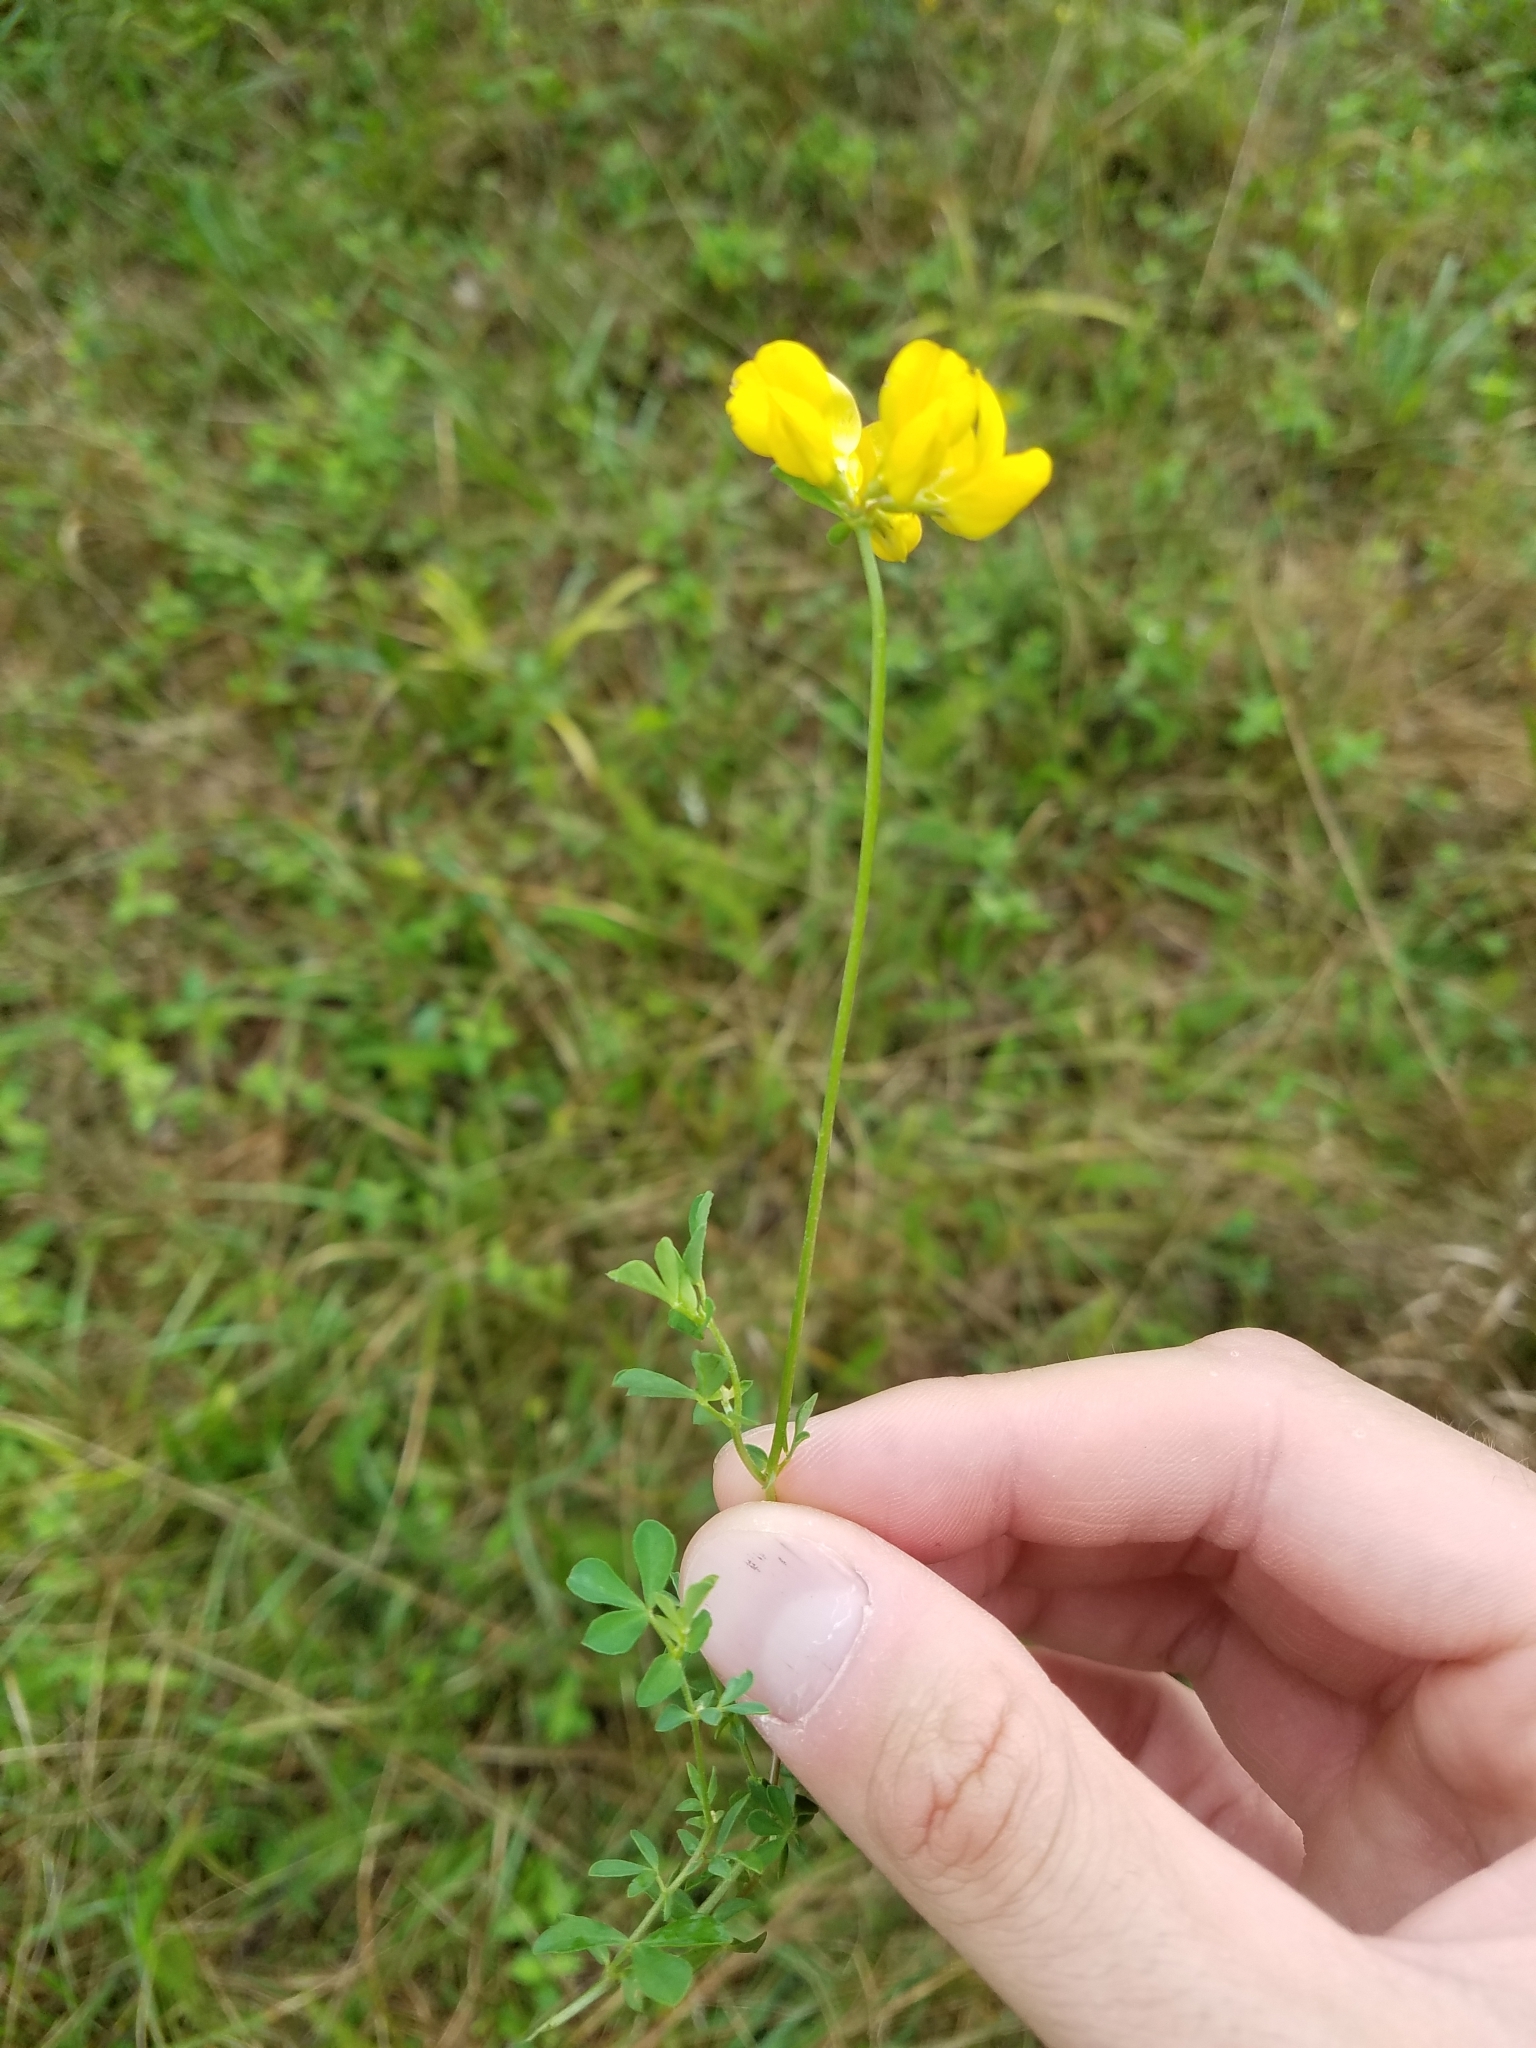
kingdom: Plantae
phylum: Tracheophyta
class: Magnoliopsida
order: Fabales
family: Fabaceae
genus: Lotus
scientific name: Lotus corniculatus
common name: Common bird's-foot-trefoil
